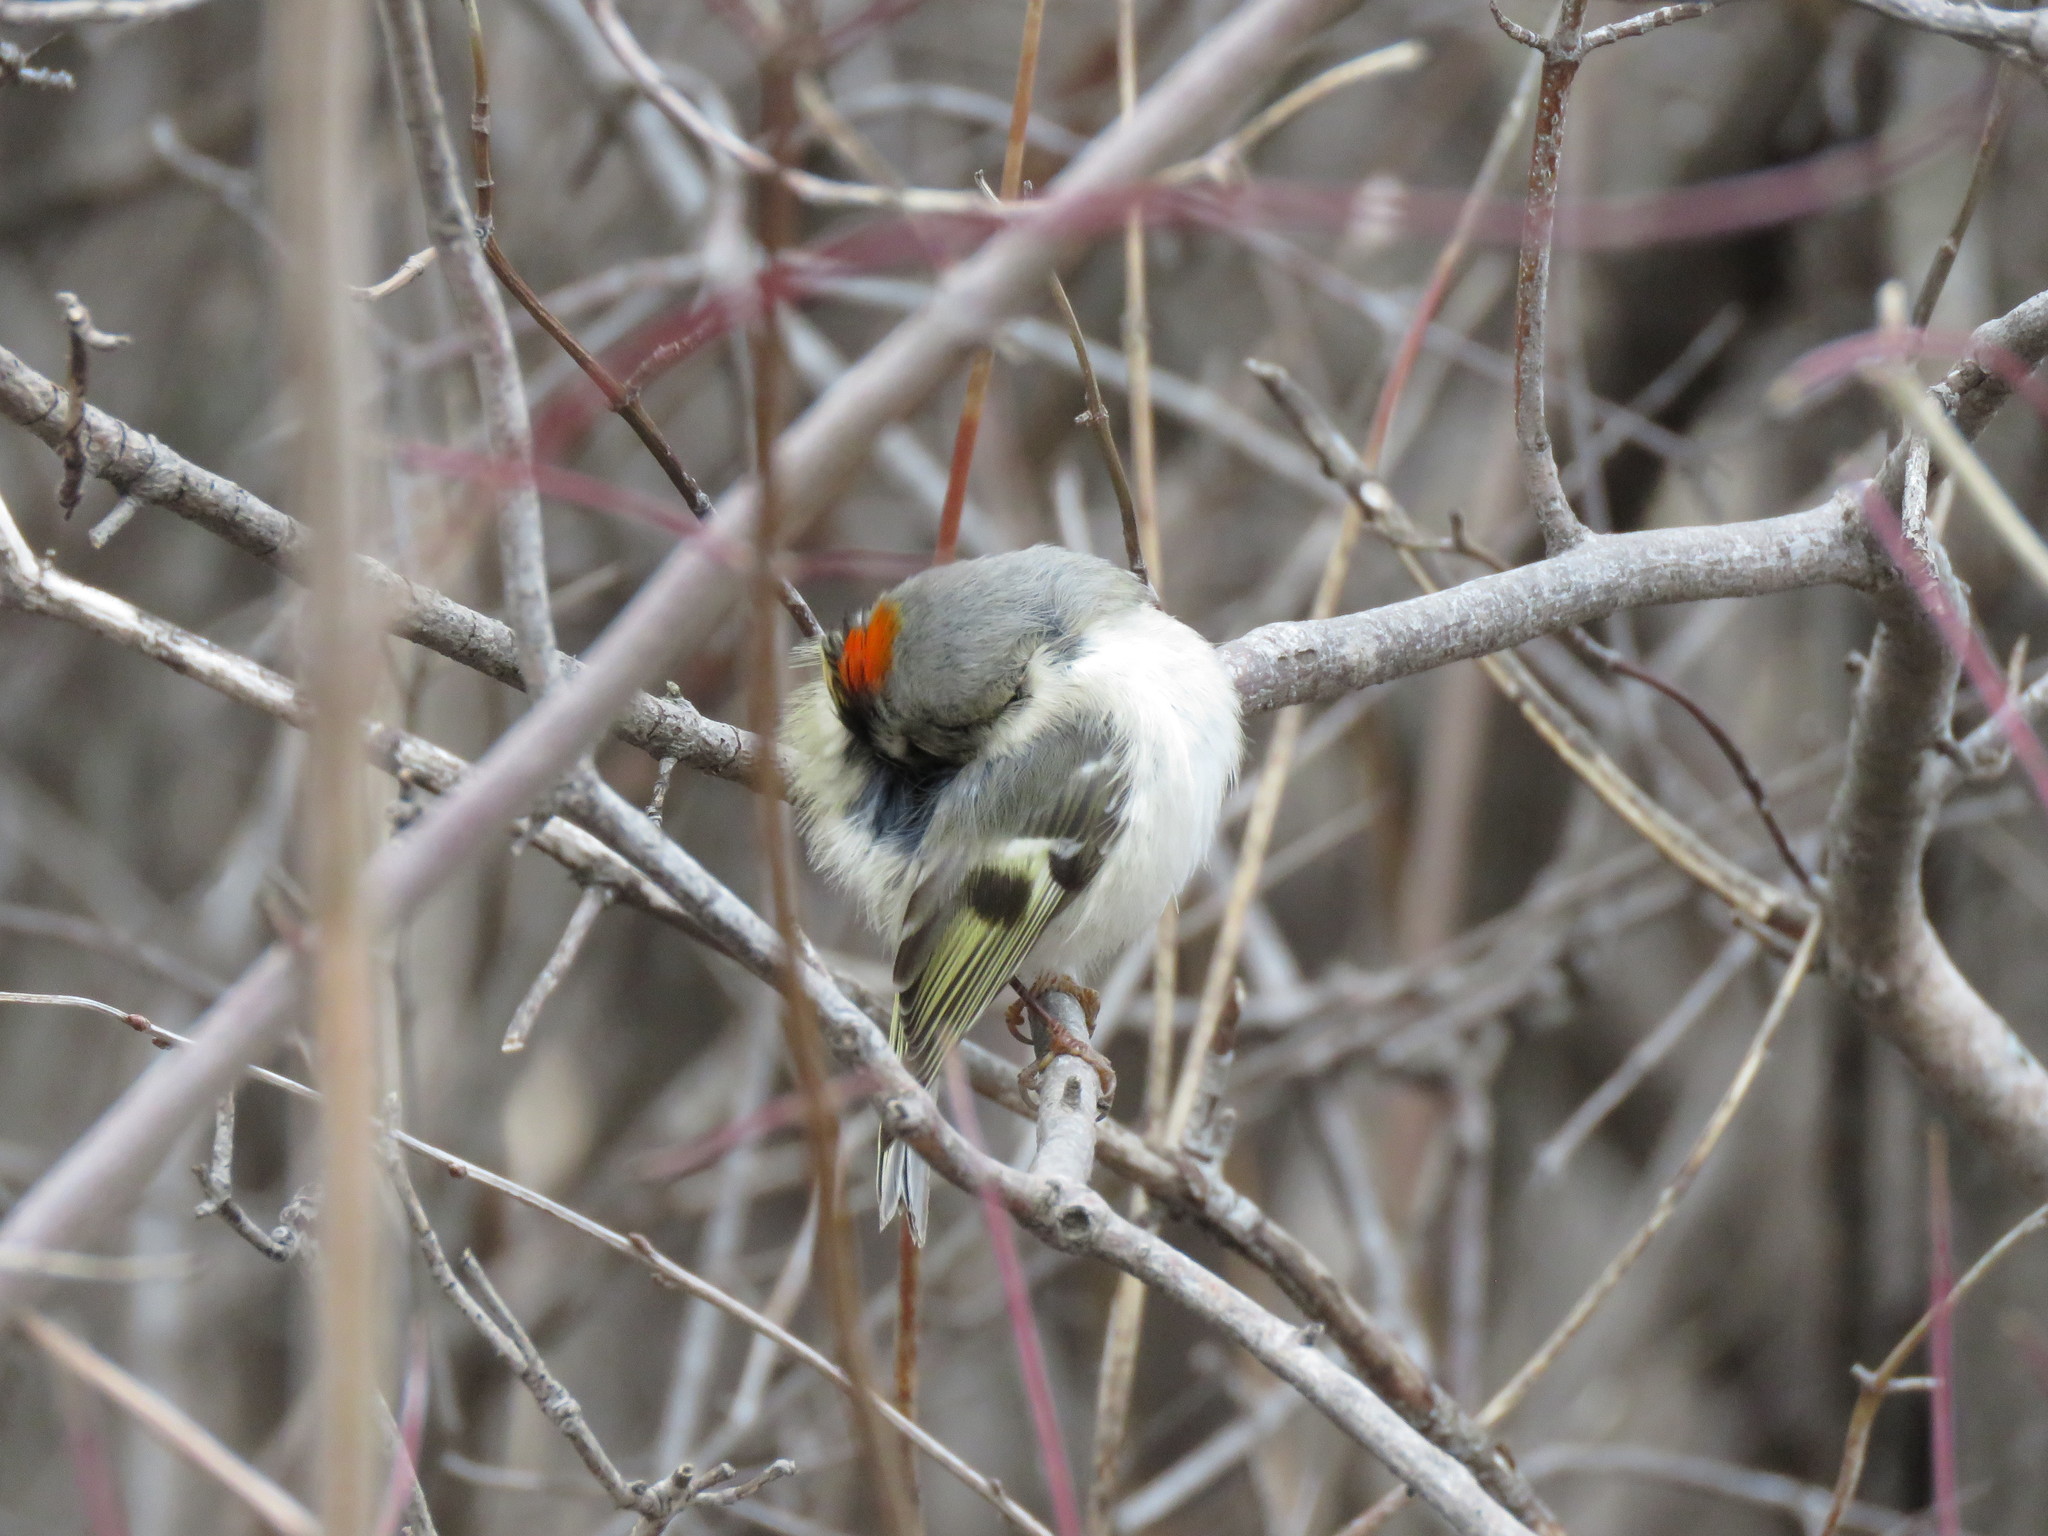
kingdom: Animalia
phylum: Chordata
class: Aves
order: Passeriformes
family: Regulidae
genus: Regulus
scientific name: Regulus satrapa
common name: Golden-crowned kinglet
